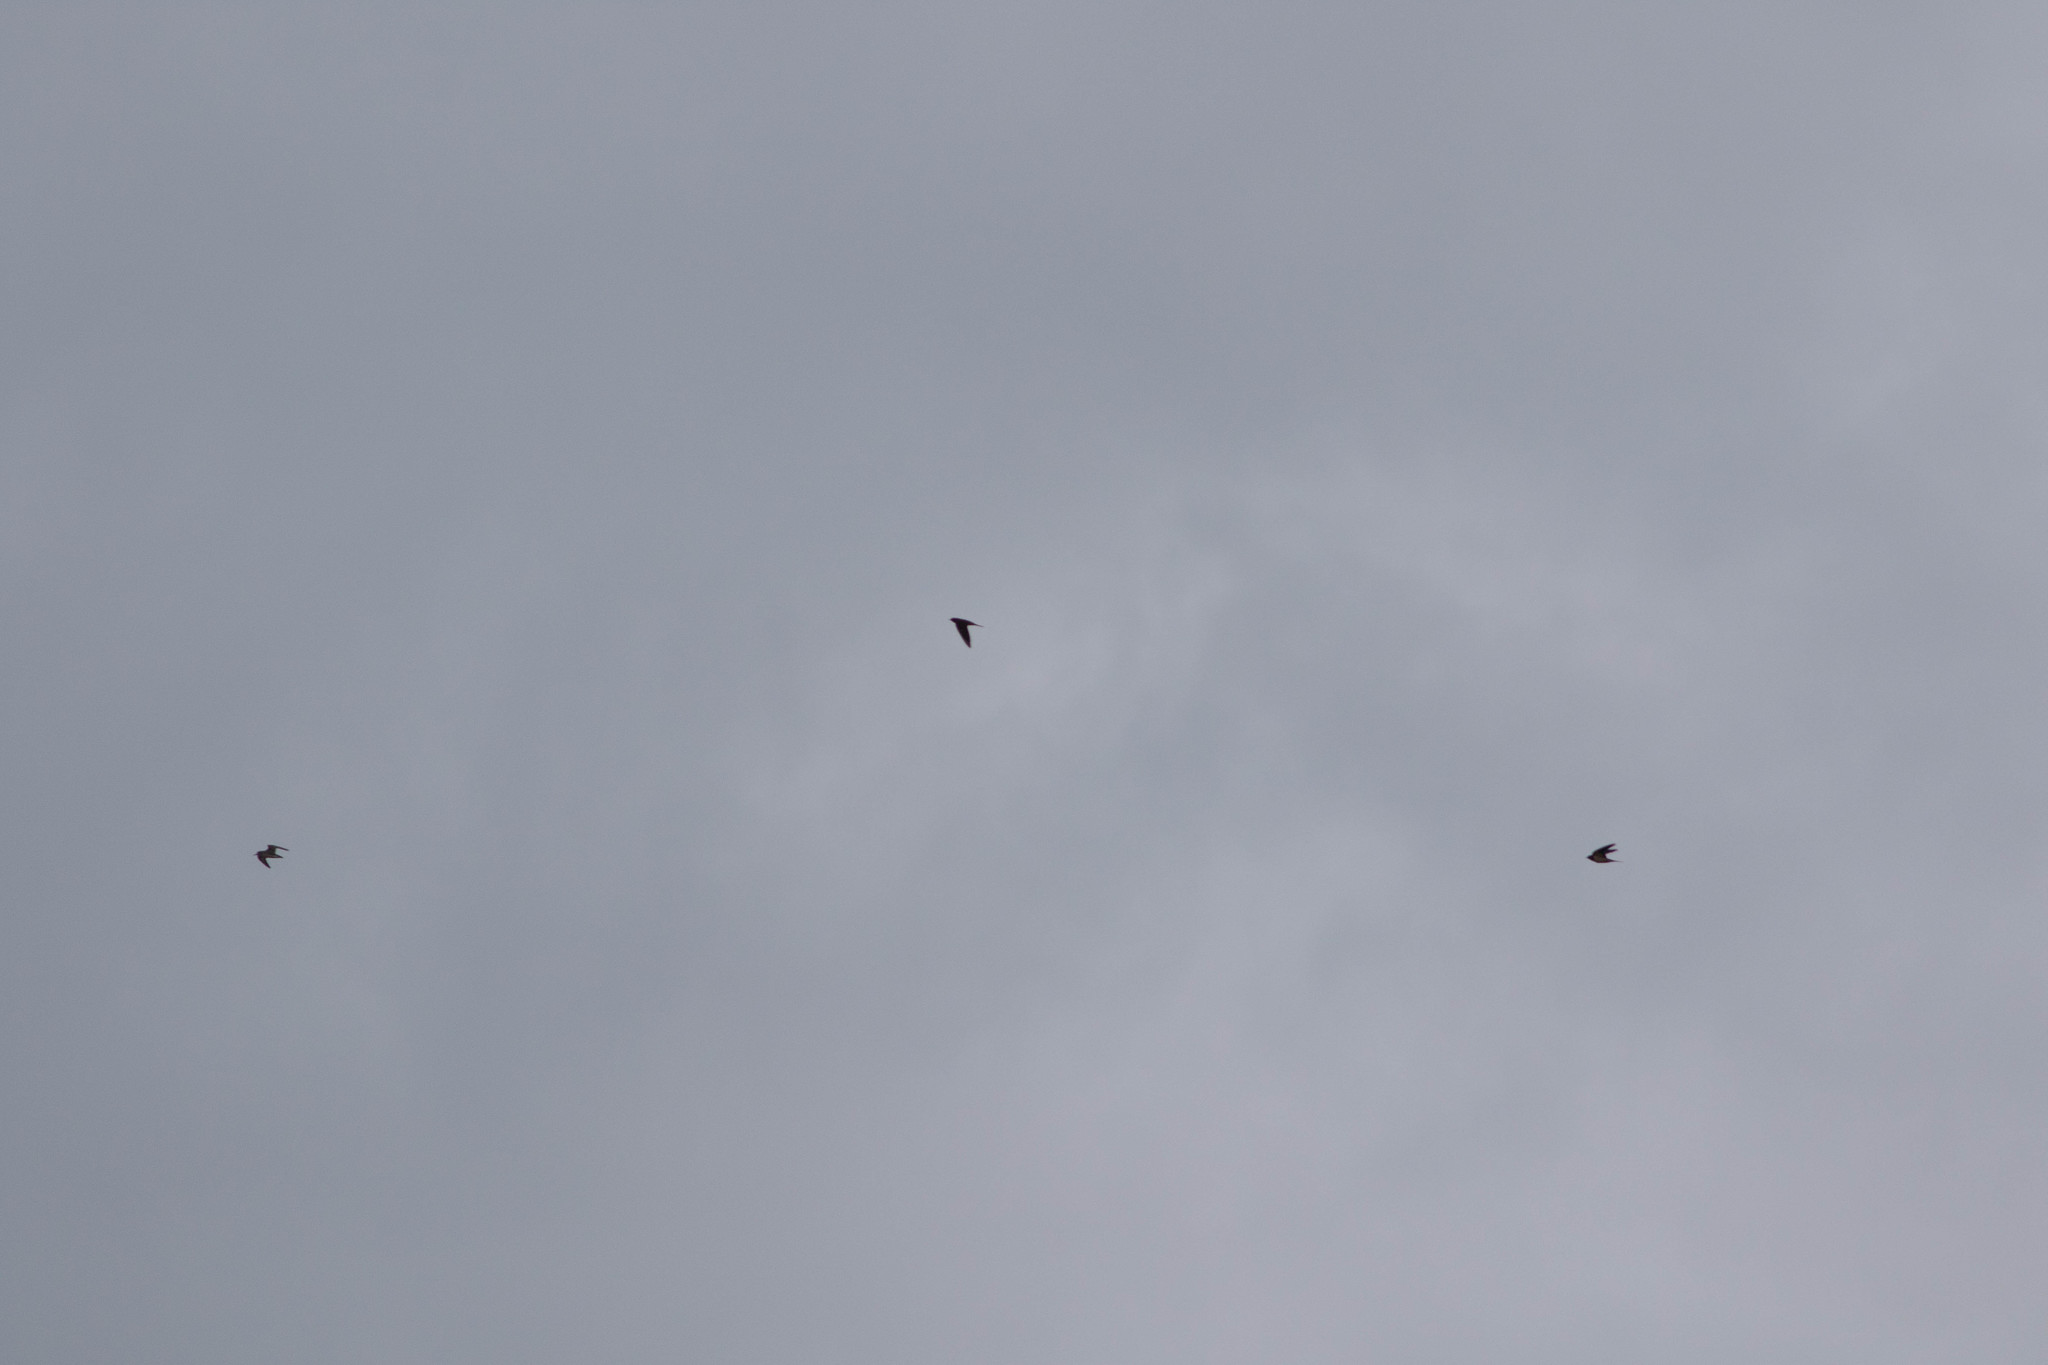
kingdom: Animalia
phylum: Chordata
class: Aves
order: Charadriiformes
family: Scolopacidae
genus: Calidris
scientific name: Calidris
